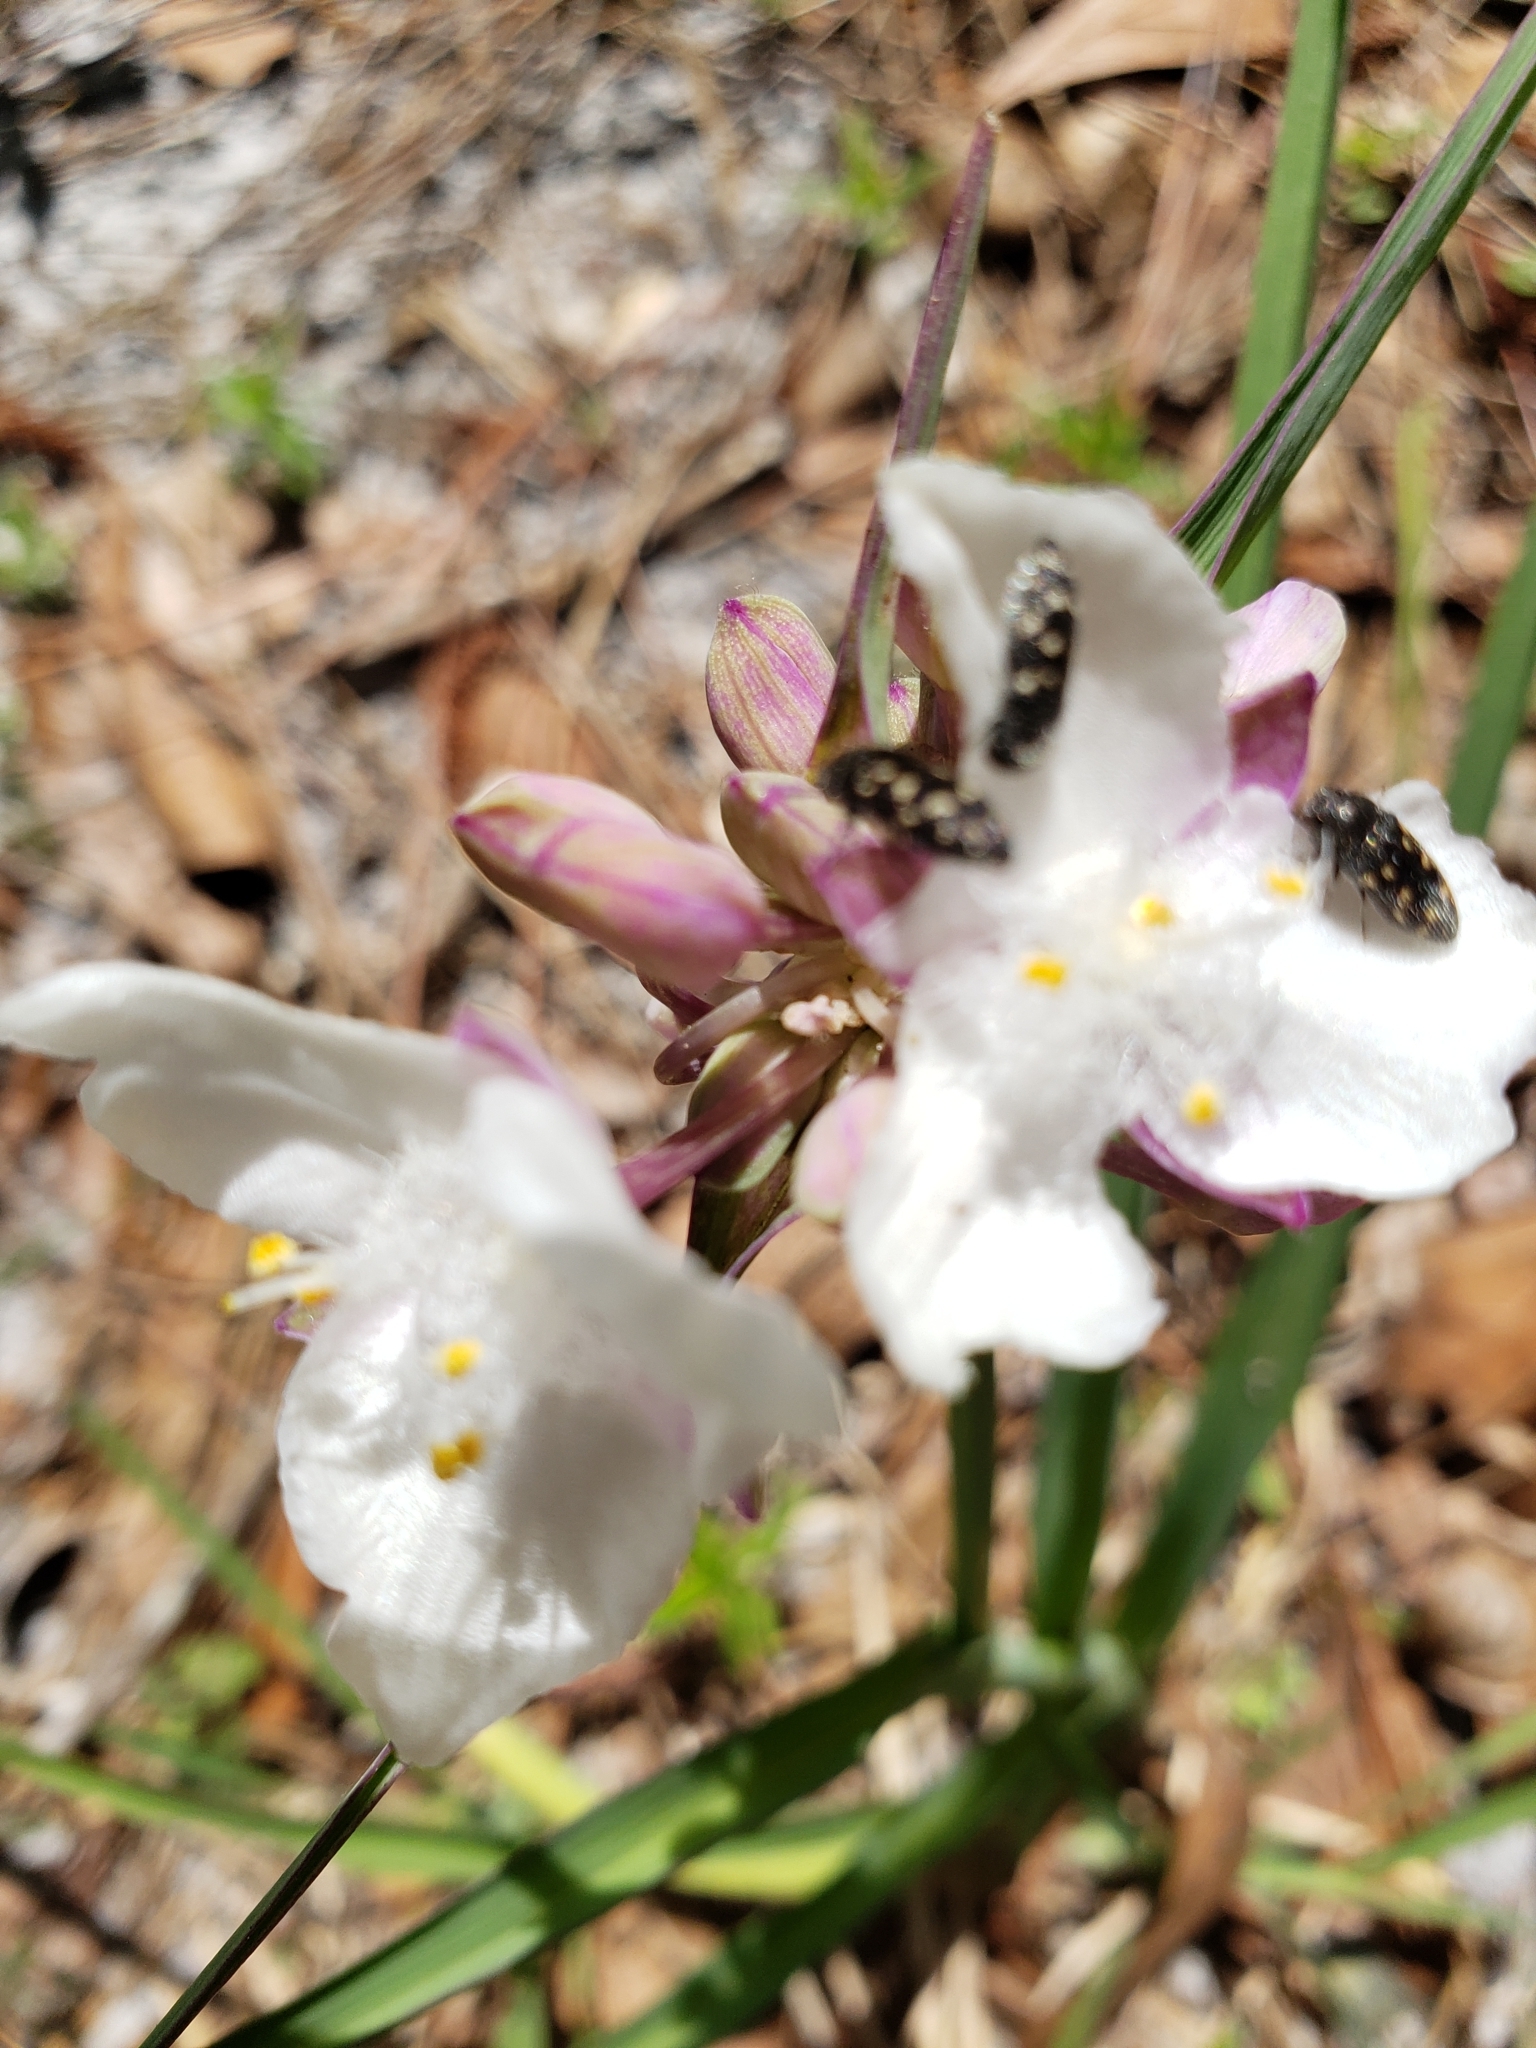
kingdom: Plantae
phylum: Tracheophyta
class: Liliopsida
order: Commelinales
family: Commelinaceae
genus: Tradescantia
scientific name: Tradescantia ohiensis
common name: Ohio spiderwort
